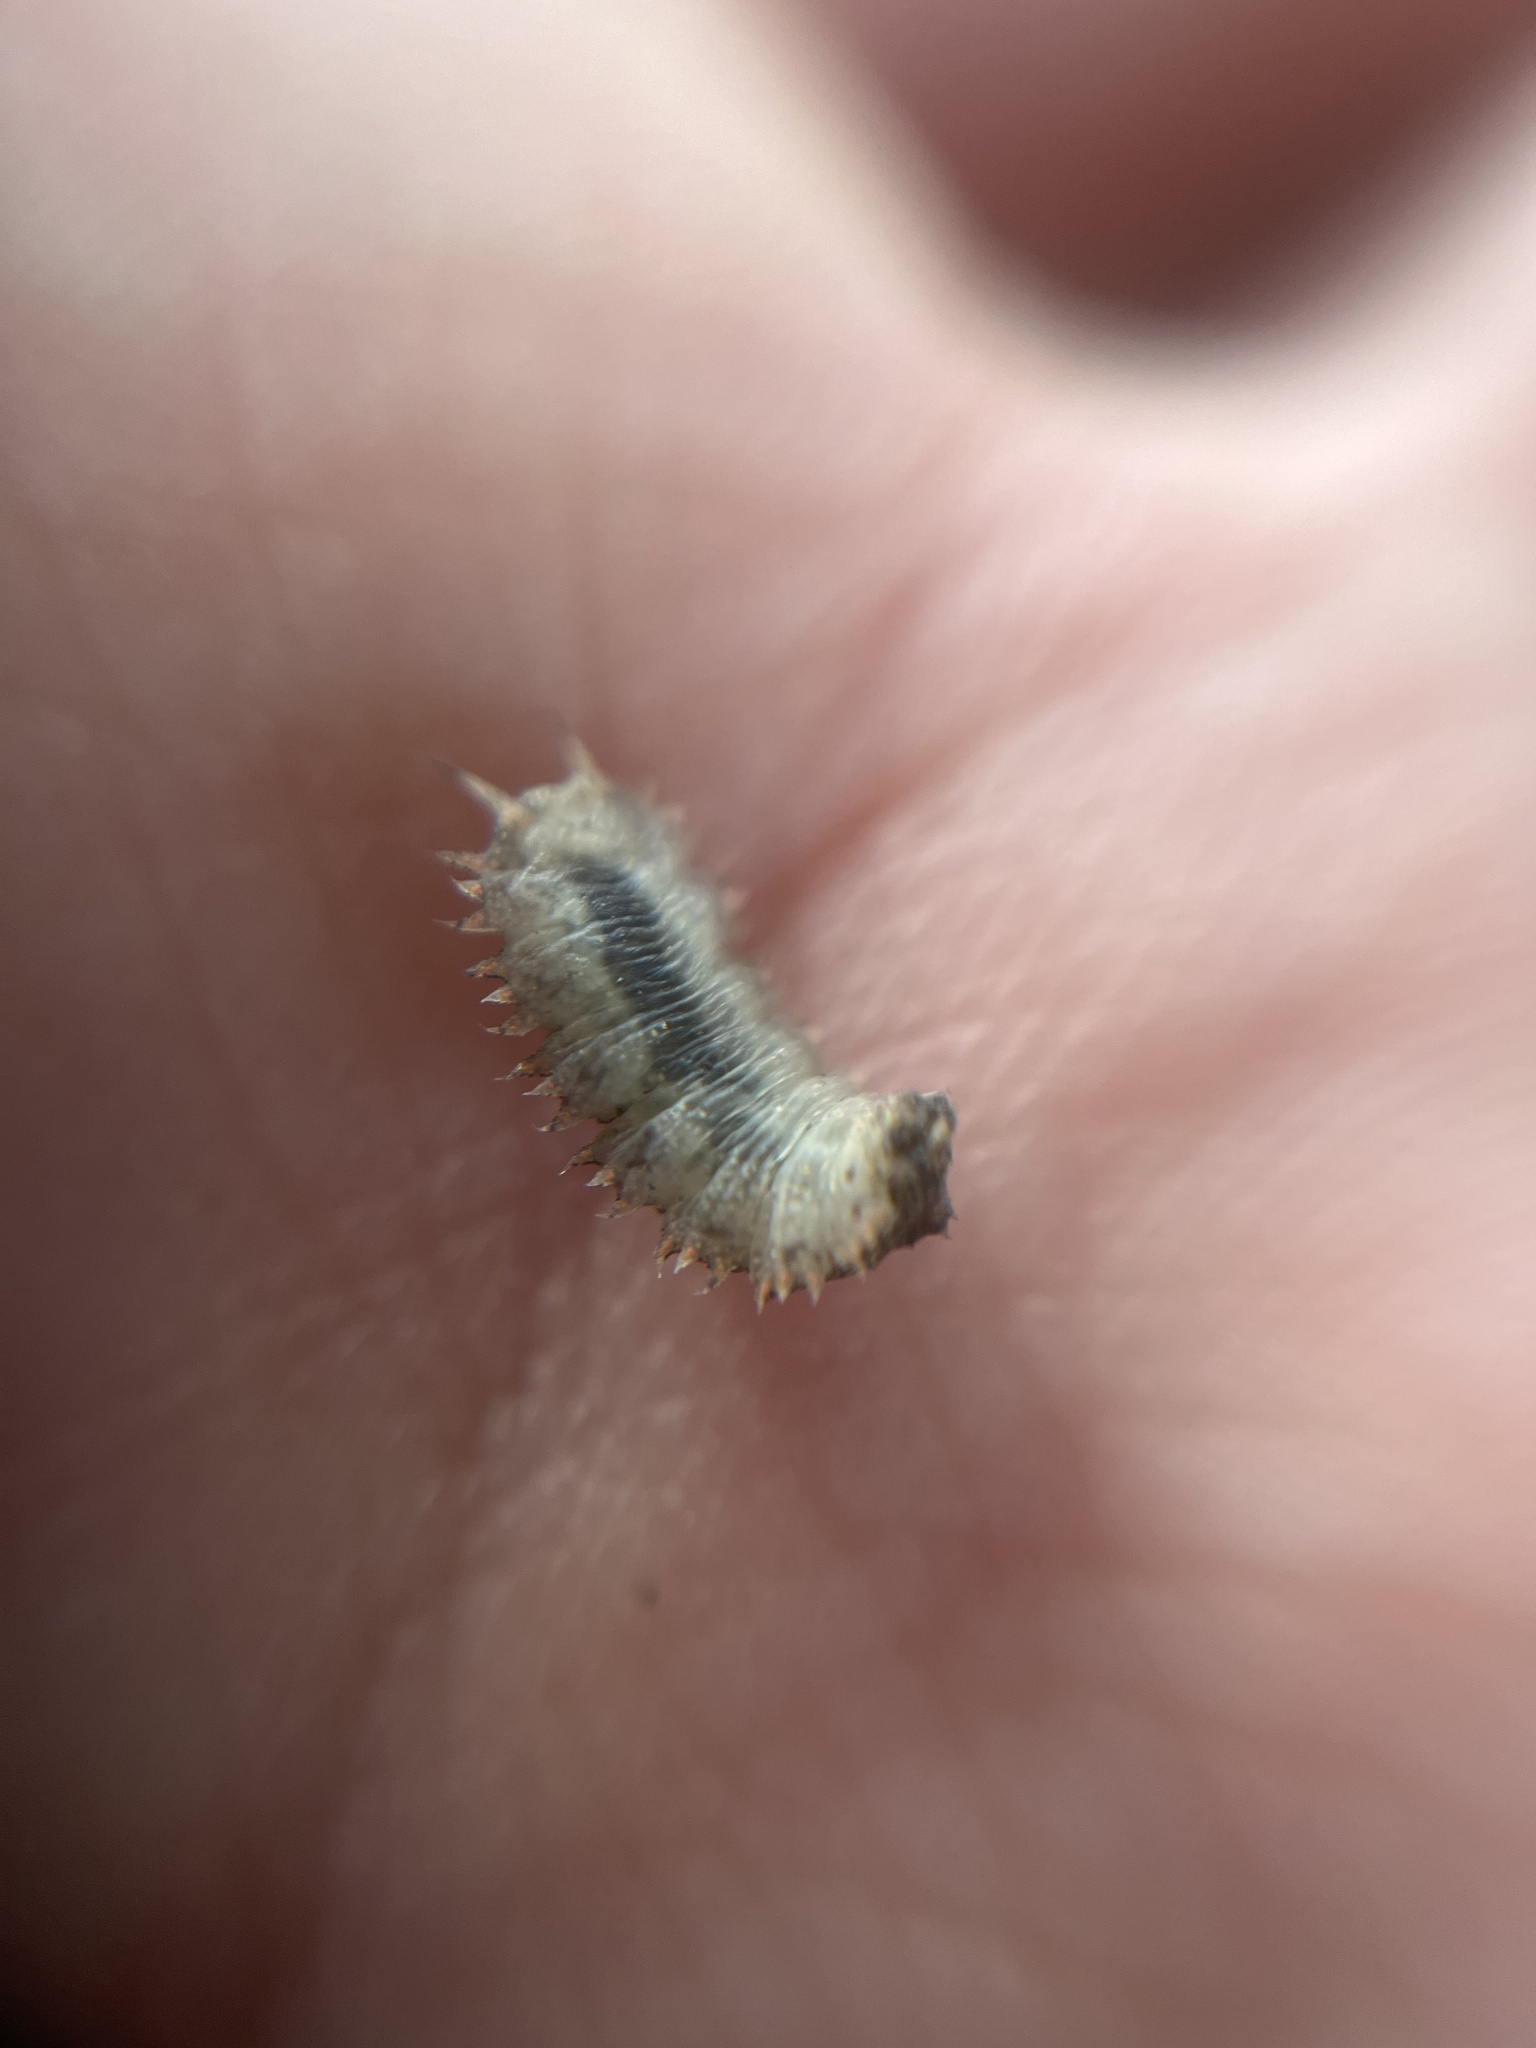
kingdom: Animalia
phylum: Arthropoda
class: Insecta
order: Diptera
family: Syrphidae
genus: Dasysyrphus
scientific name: Dasysyrphus
